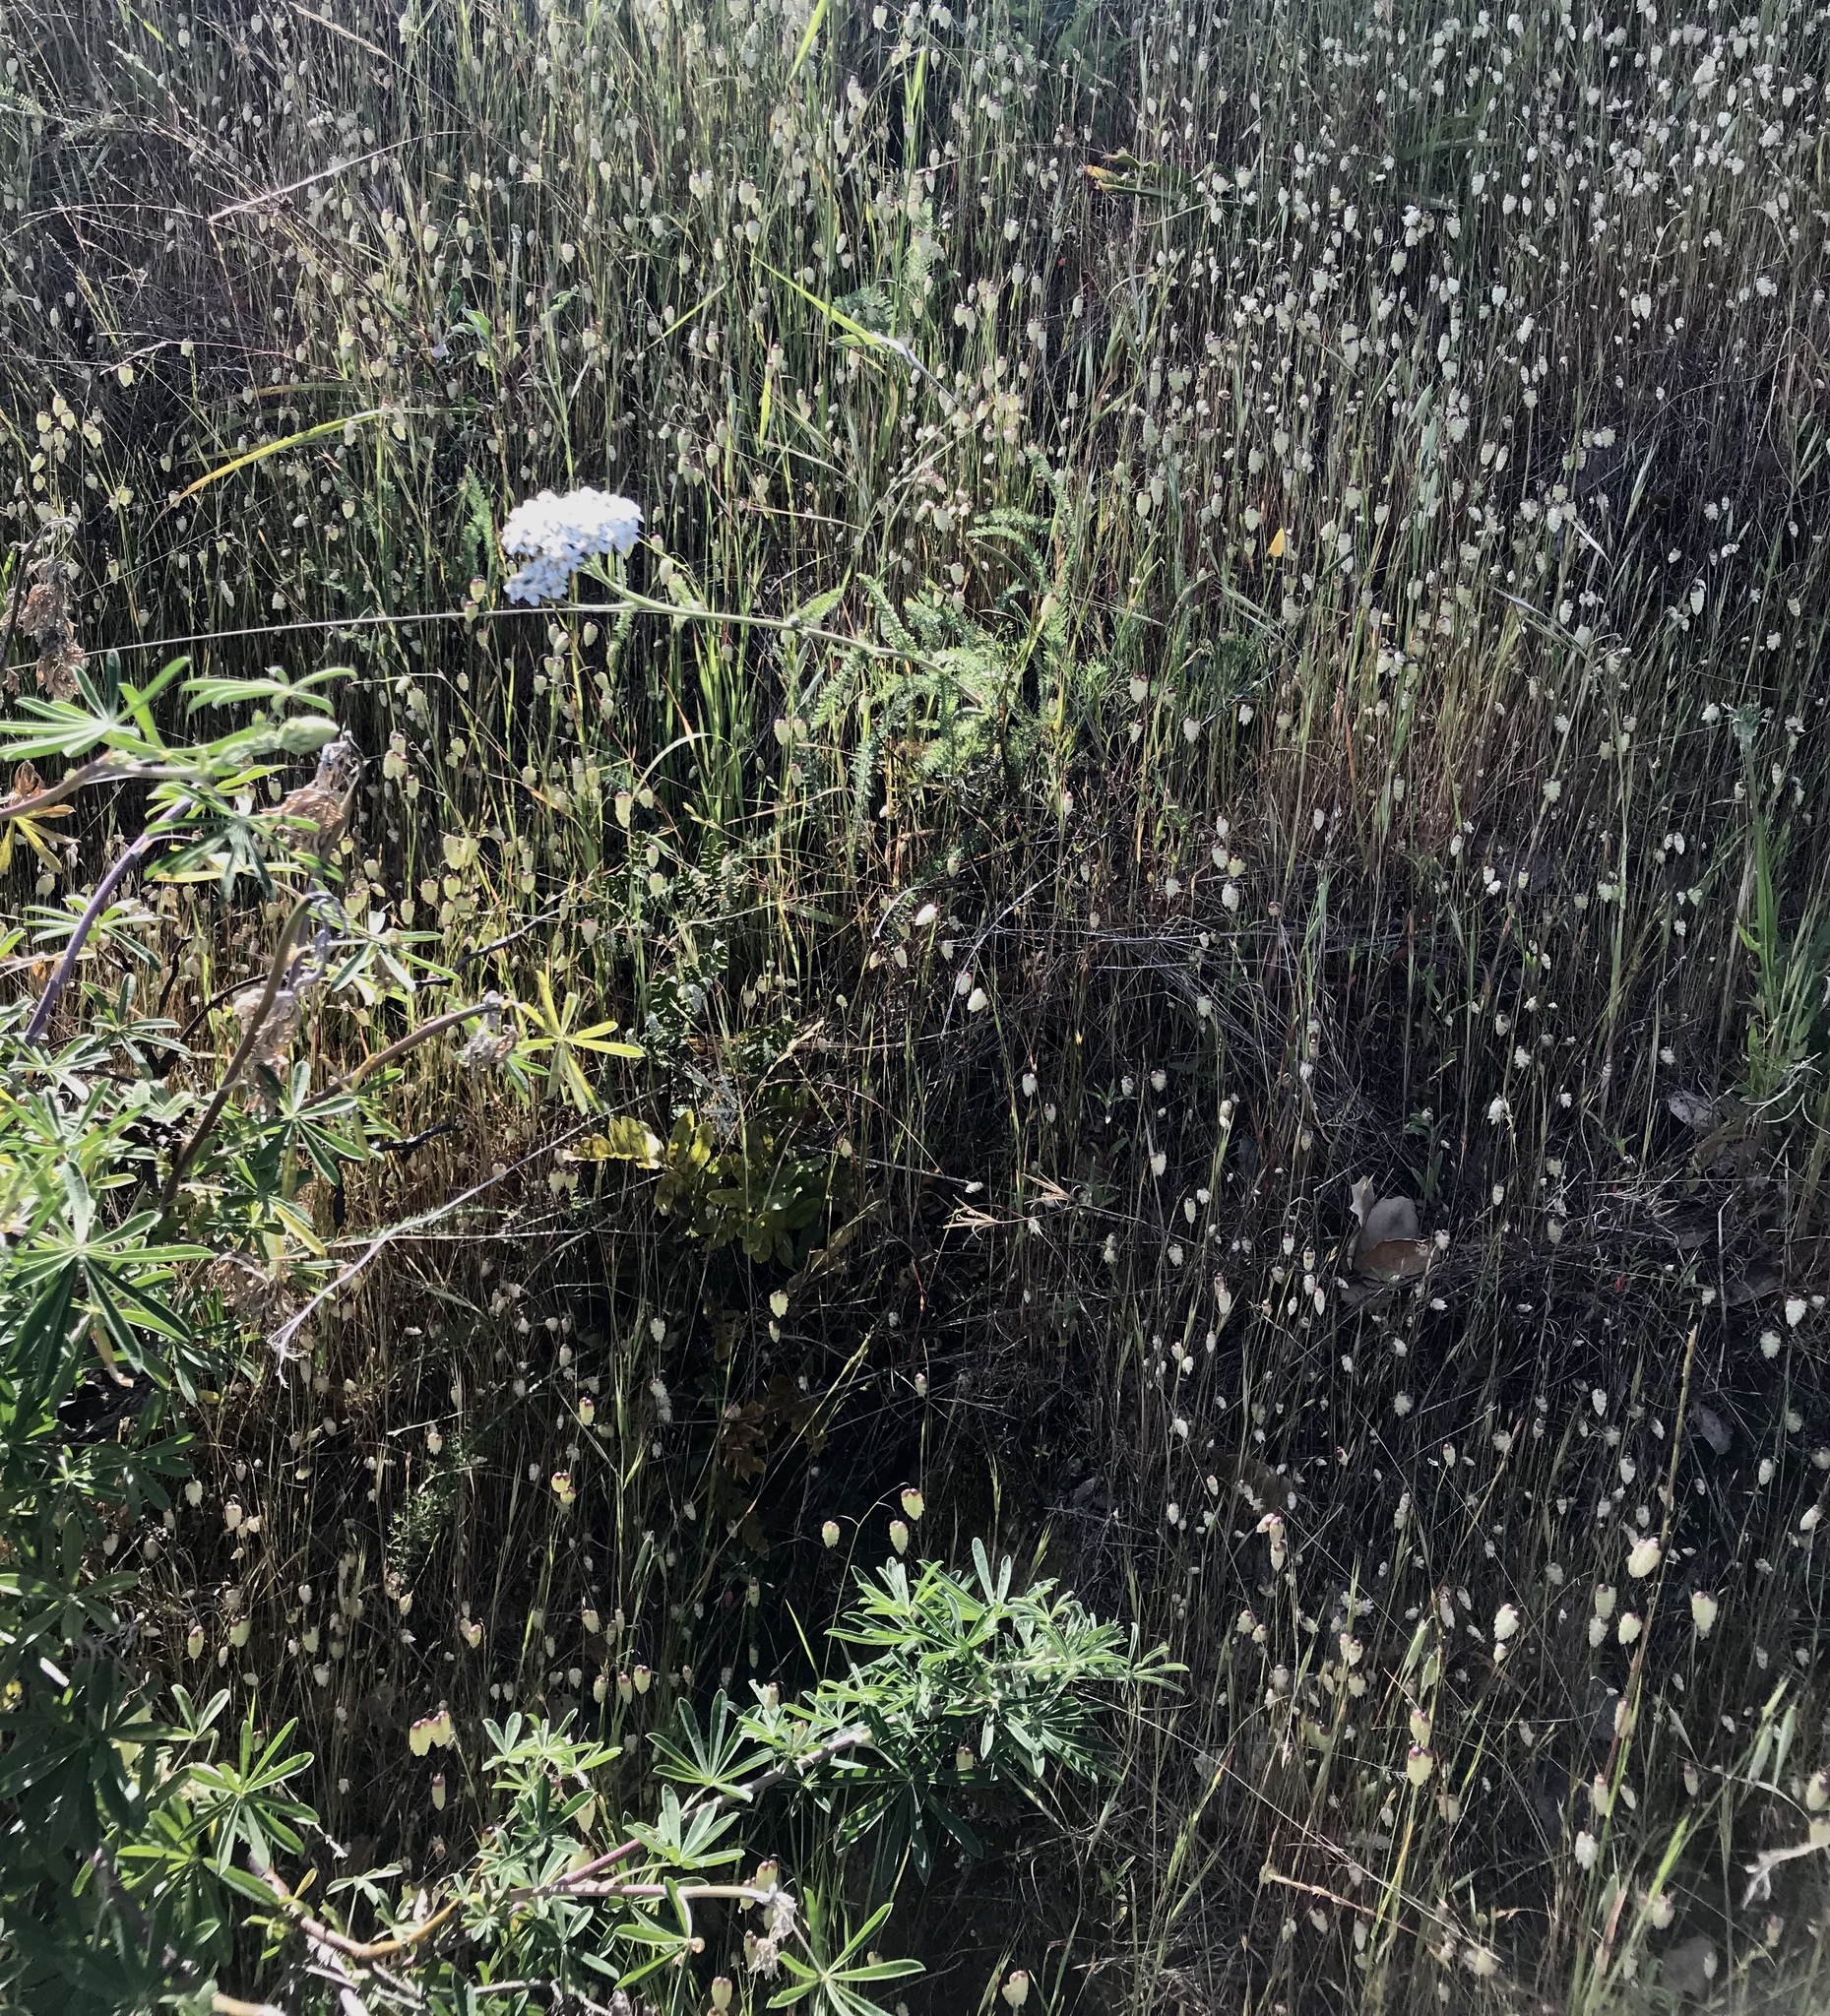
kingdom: Plantae
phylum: Tracheophyta
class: Magnoliopsida
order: Asterales
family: Asteraceae
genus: Achillea
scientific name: Achillea millefolium
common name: Yarrow
